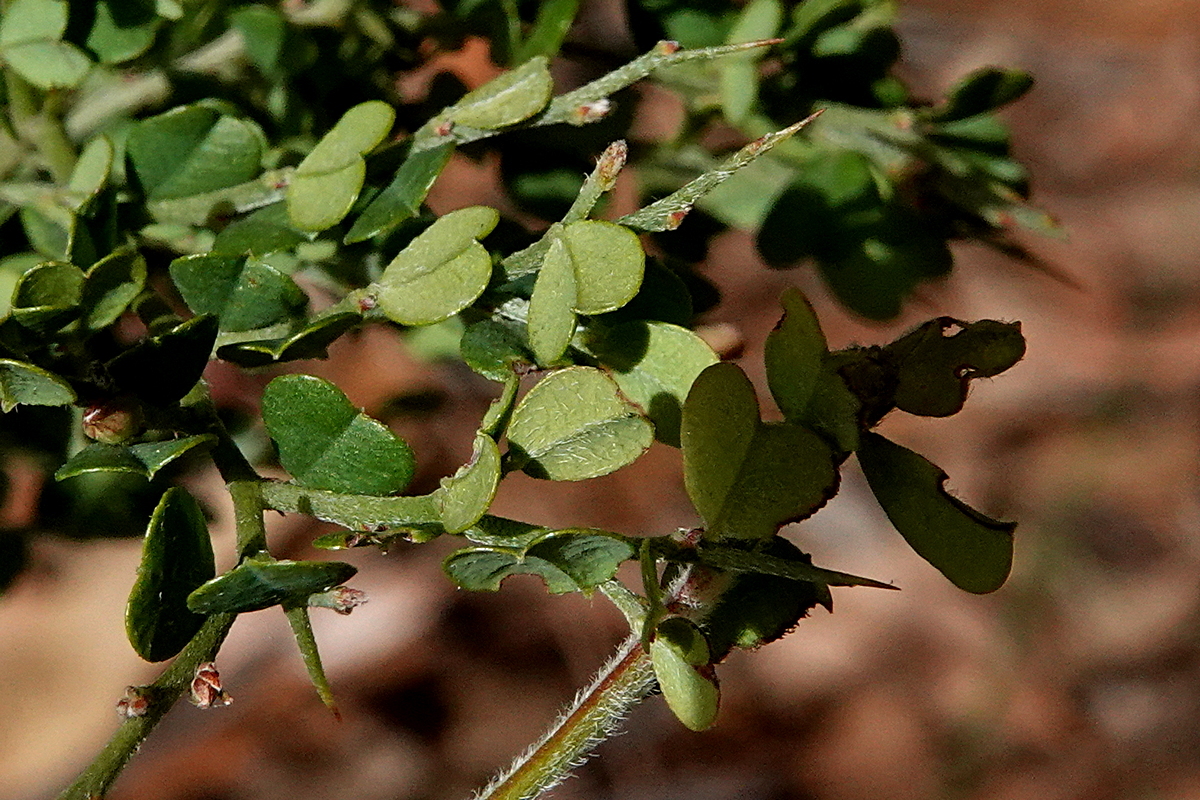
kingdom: Plantae
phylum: Tracheophyta
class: Magnoliopsida
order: Fabales
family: Fabaceae
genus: Bossiaea
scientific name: Bossiaea obcordata
